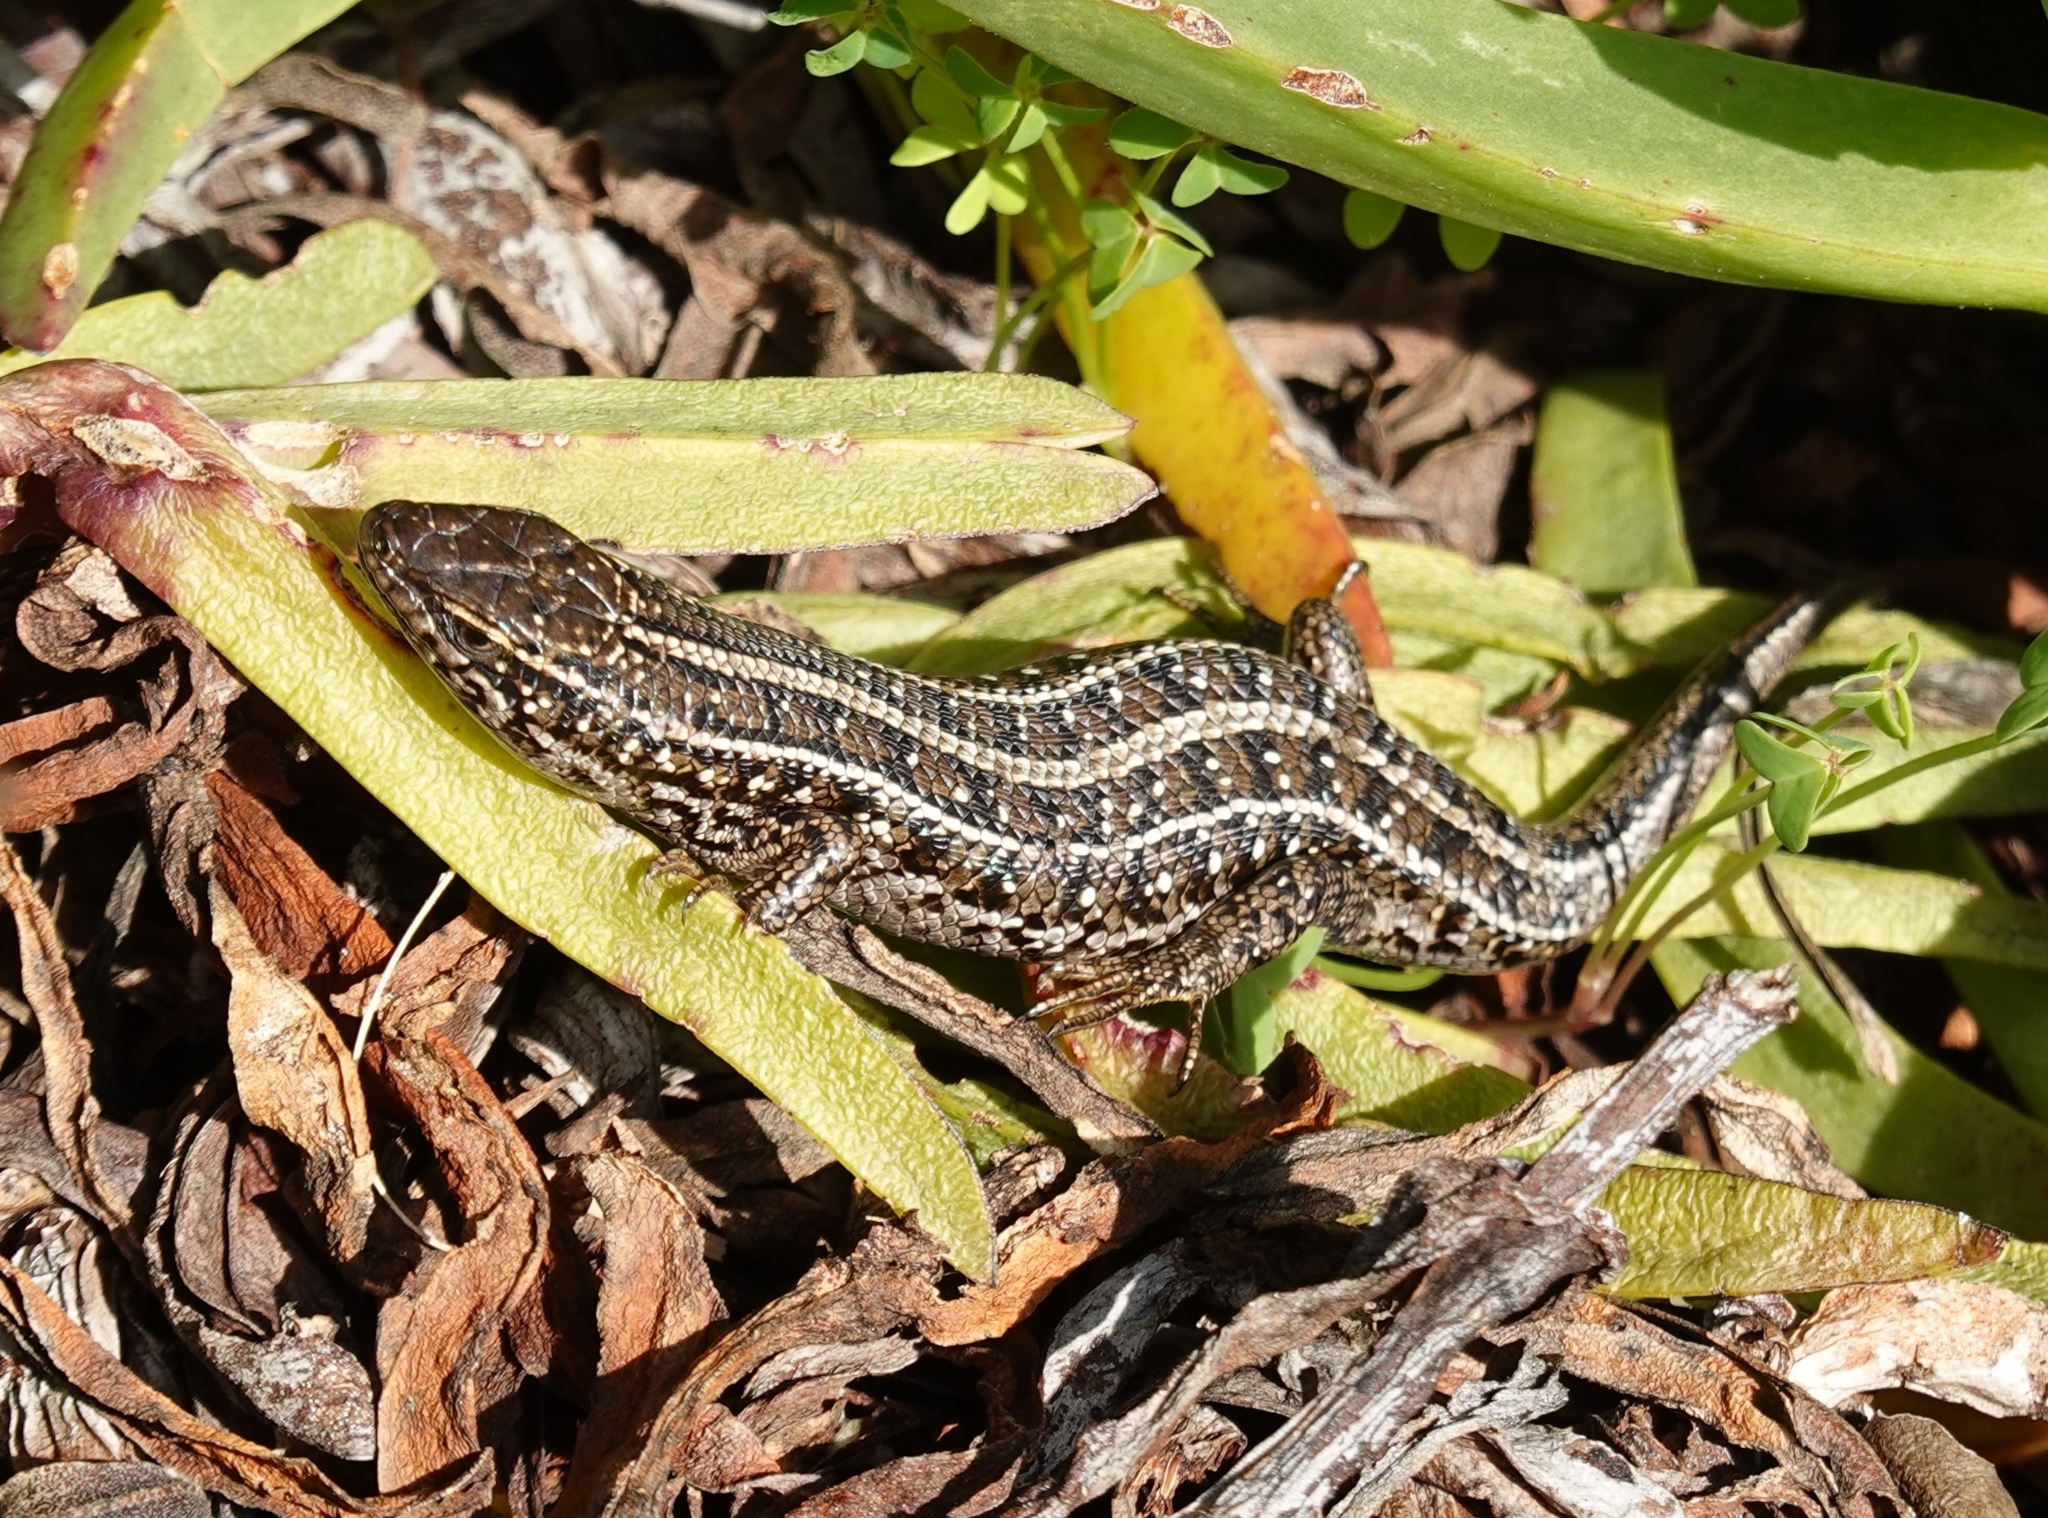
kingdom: Animalia
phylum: Chordata
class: Squamata
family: Scincidae
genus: Trachylepis
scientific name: Trachylepis capensis
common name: Cape skink
